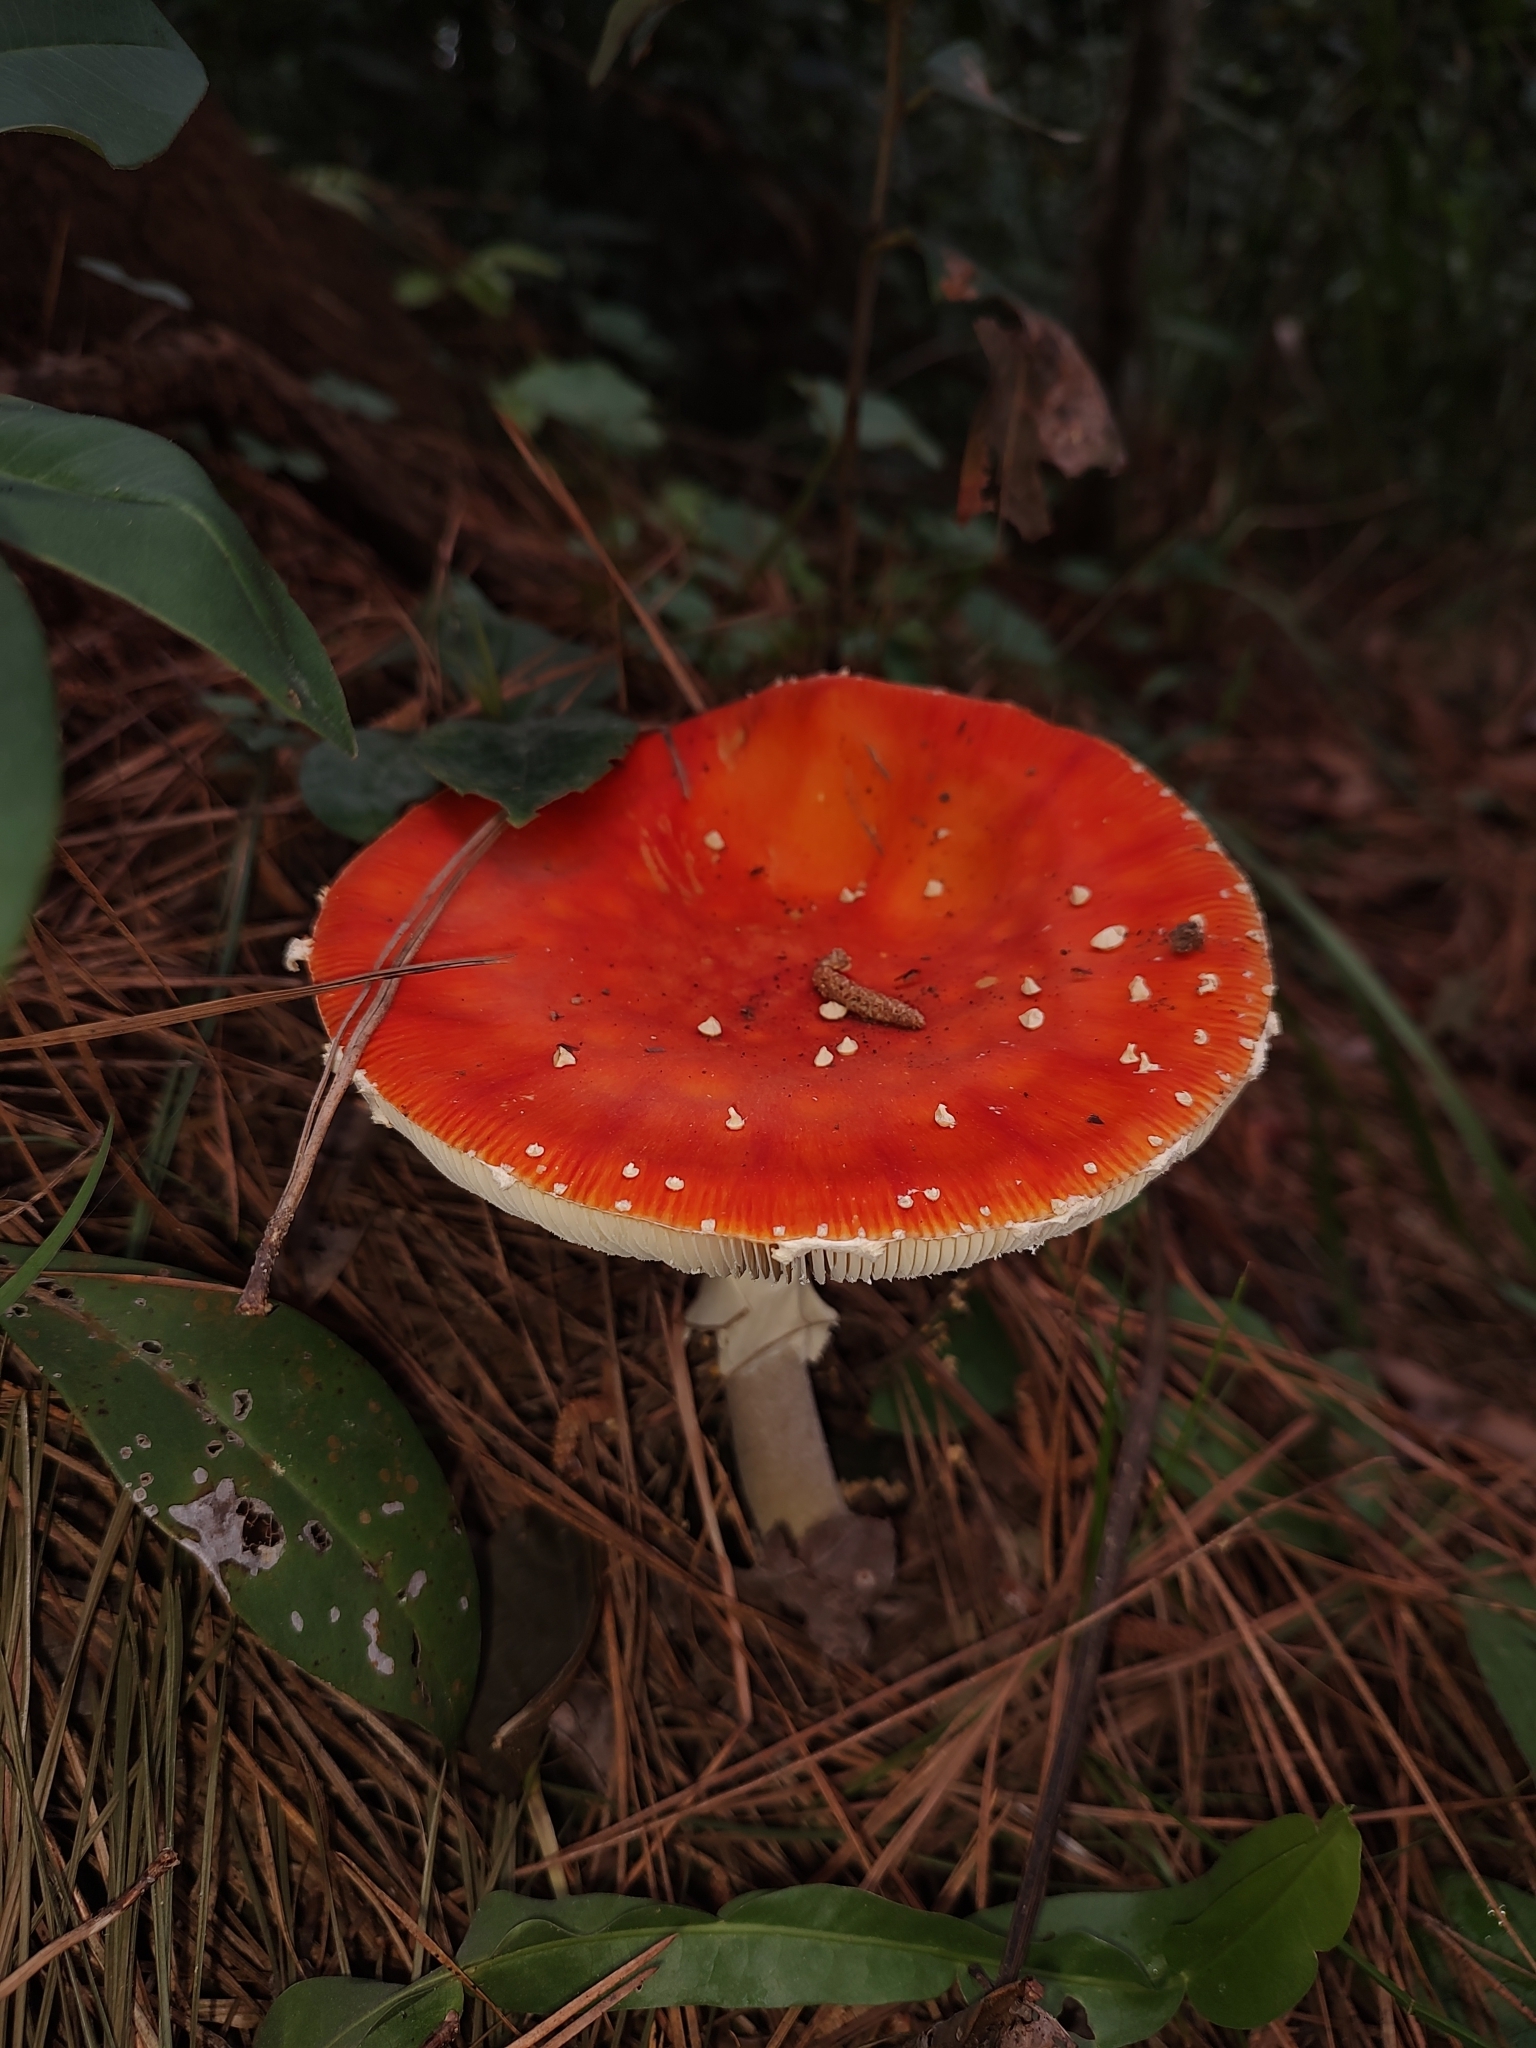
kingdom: Fungi
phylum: Basidiomycota
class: Agaricomycetes
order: Agaricales
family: Amanitaceae
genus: Amanita
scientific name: Amanita muscaria
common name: Fly agaric
